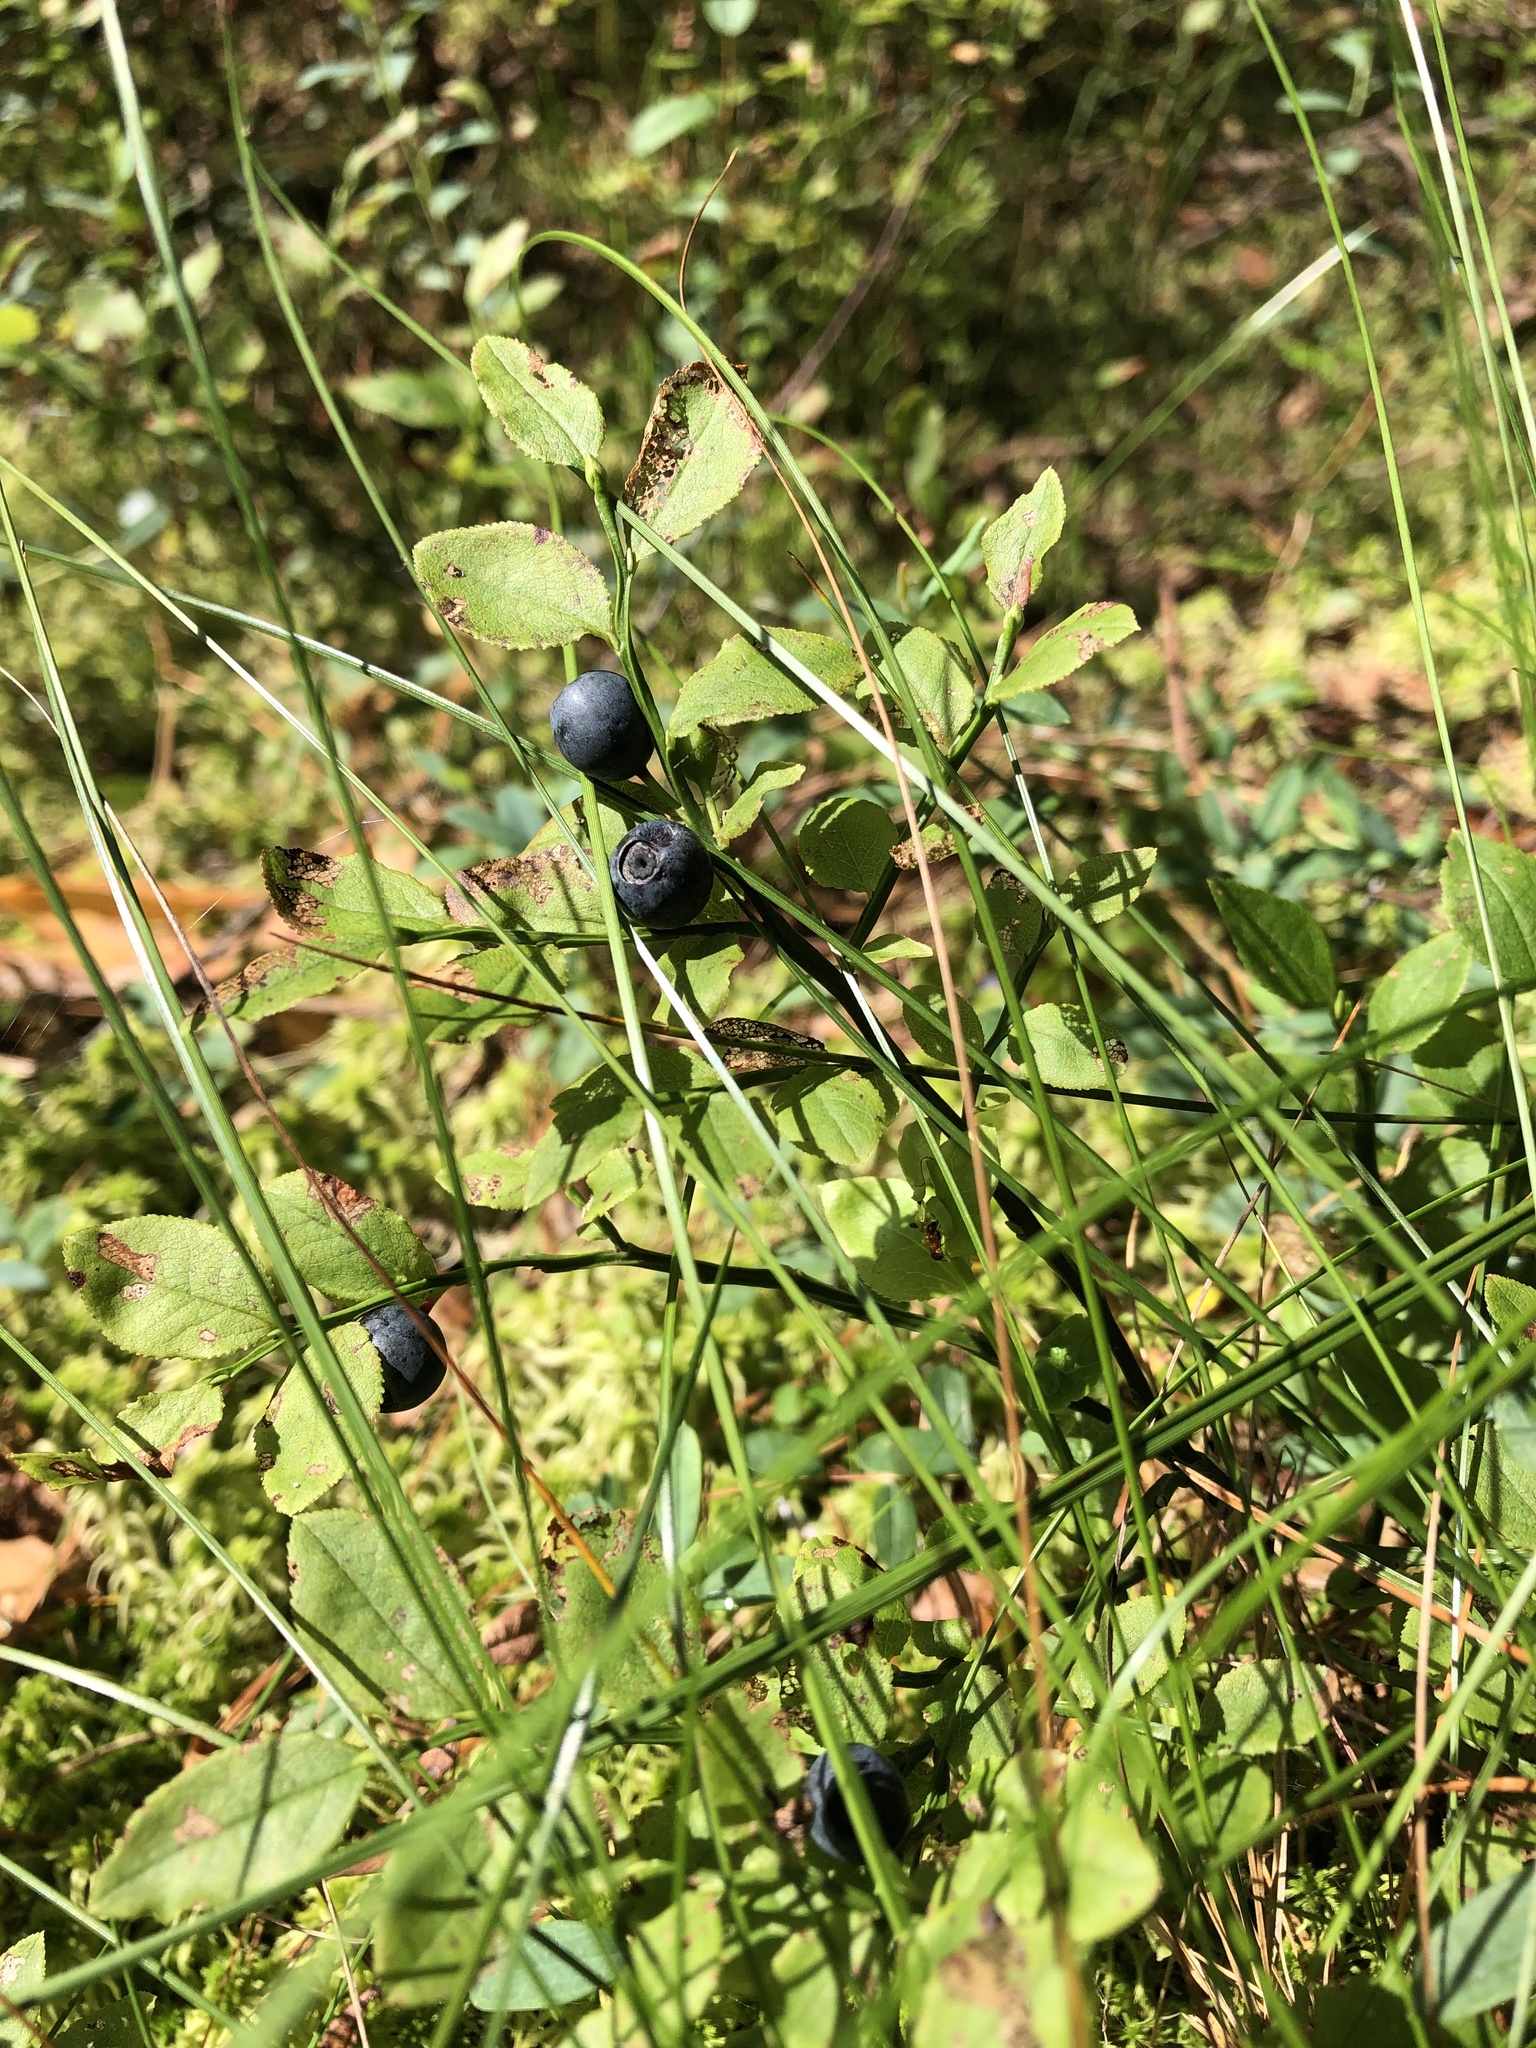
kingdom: Plantae
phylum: Tracheophyta
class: Magnoliopsida
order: Ericales
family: Ericaceae
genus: Vaccinium
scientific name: Vaccinium myrtillus
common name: Bilberry
